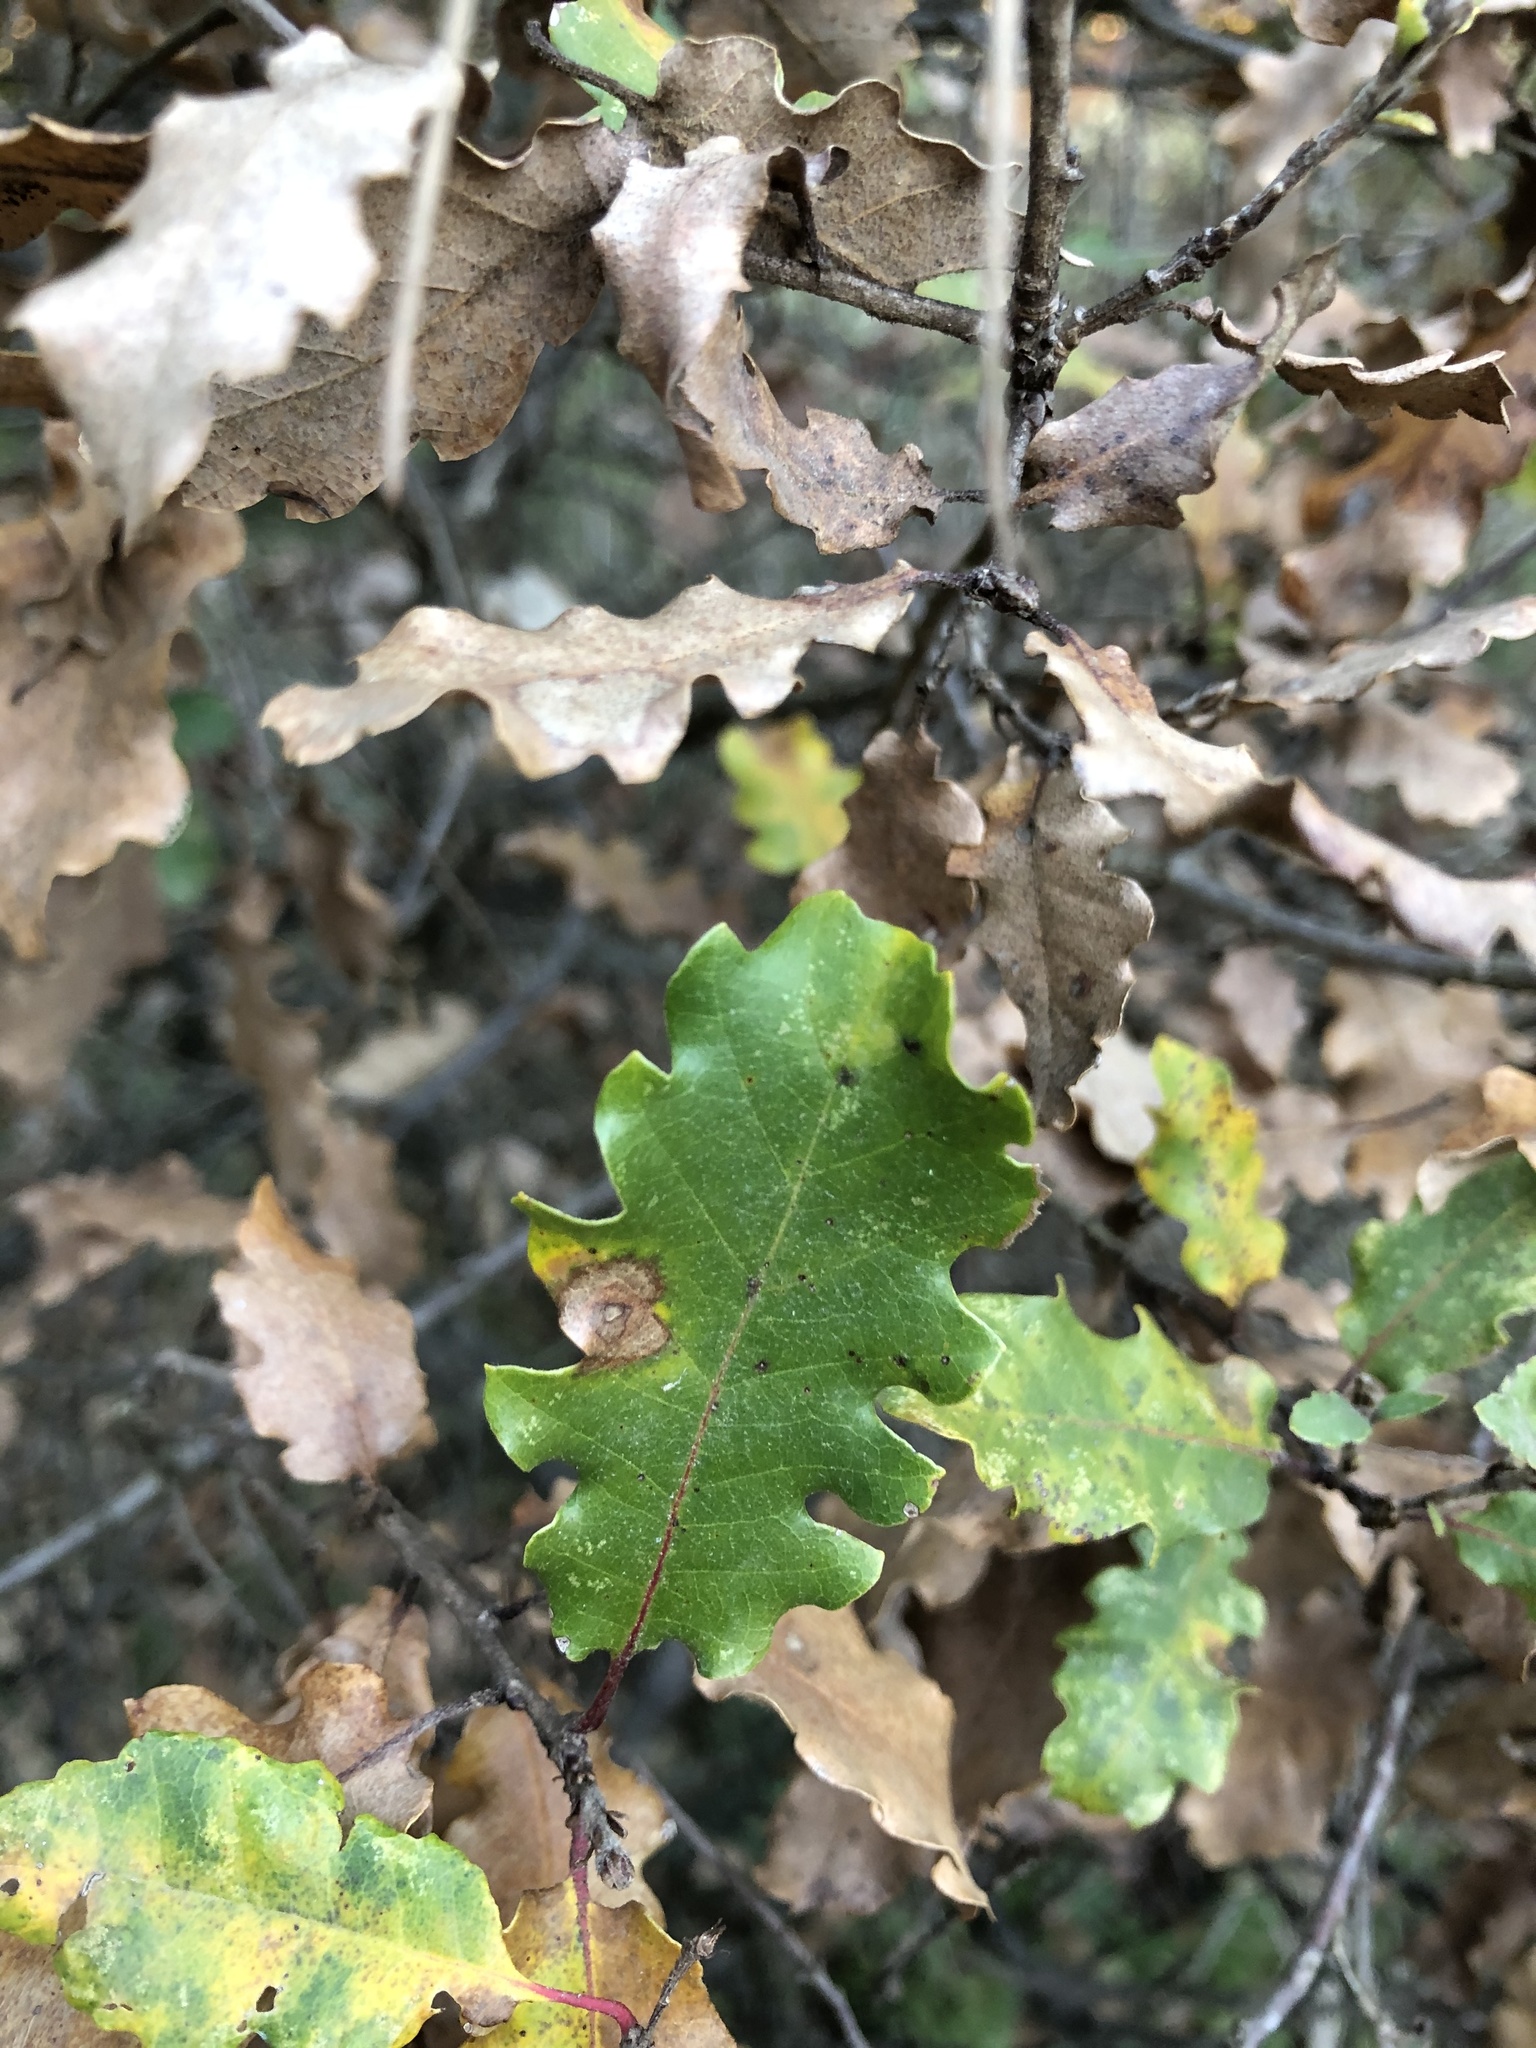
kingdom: Plantae
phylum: Tracheophyta
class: Magnoliopsida
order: Fagales
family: Fagaceae
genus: Quercus
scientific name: Quercus pubescens
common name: Downy oak
